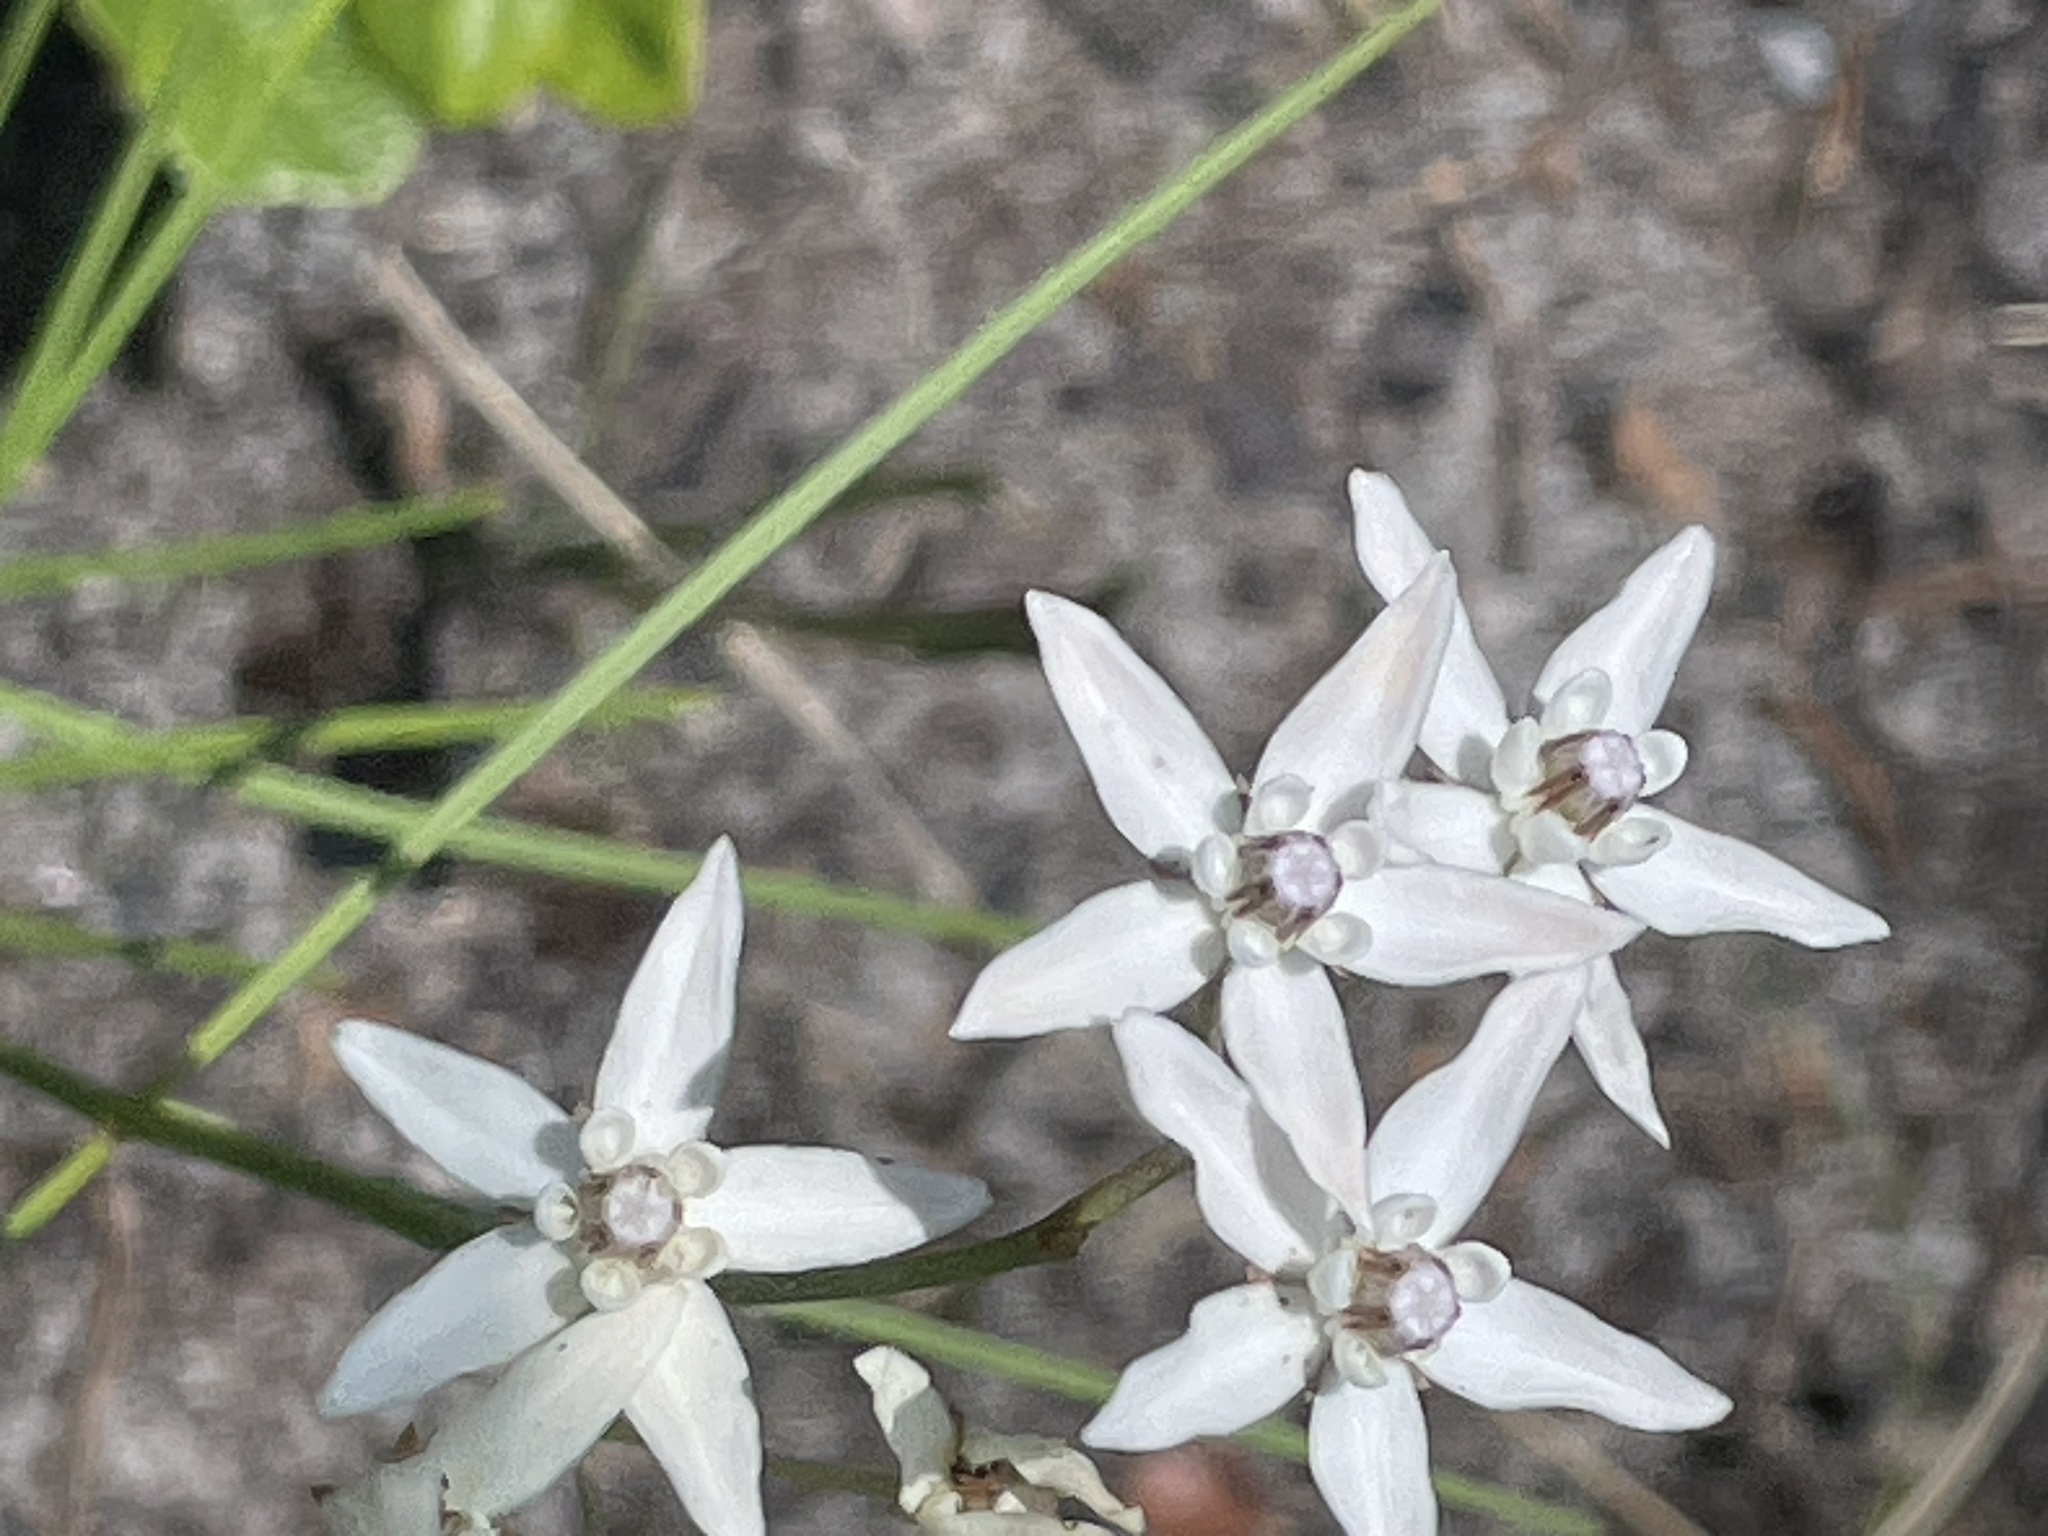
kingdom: Plantae
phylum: Tracheophyta
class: Magnoliopsida
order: Gentianales
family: Apocynaceae
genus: Asclepias
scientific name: Asclepias feayi
